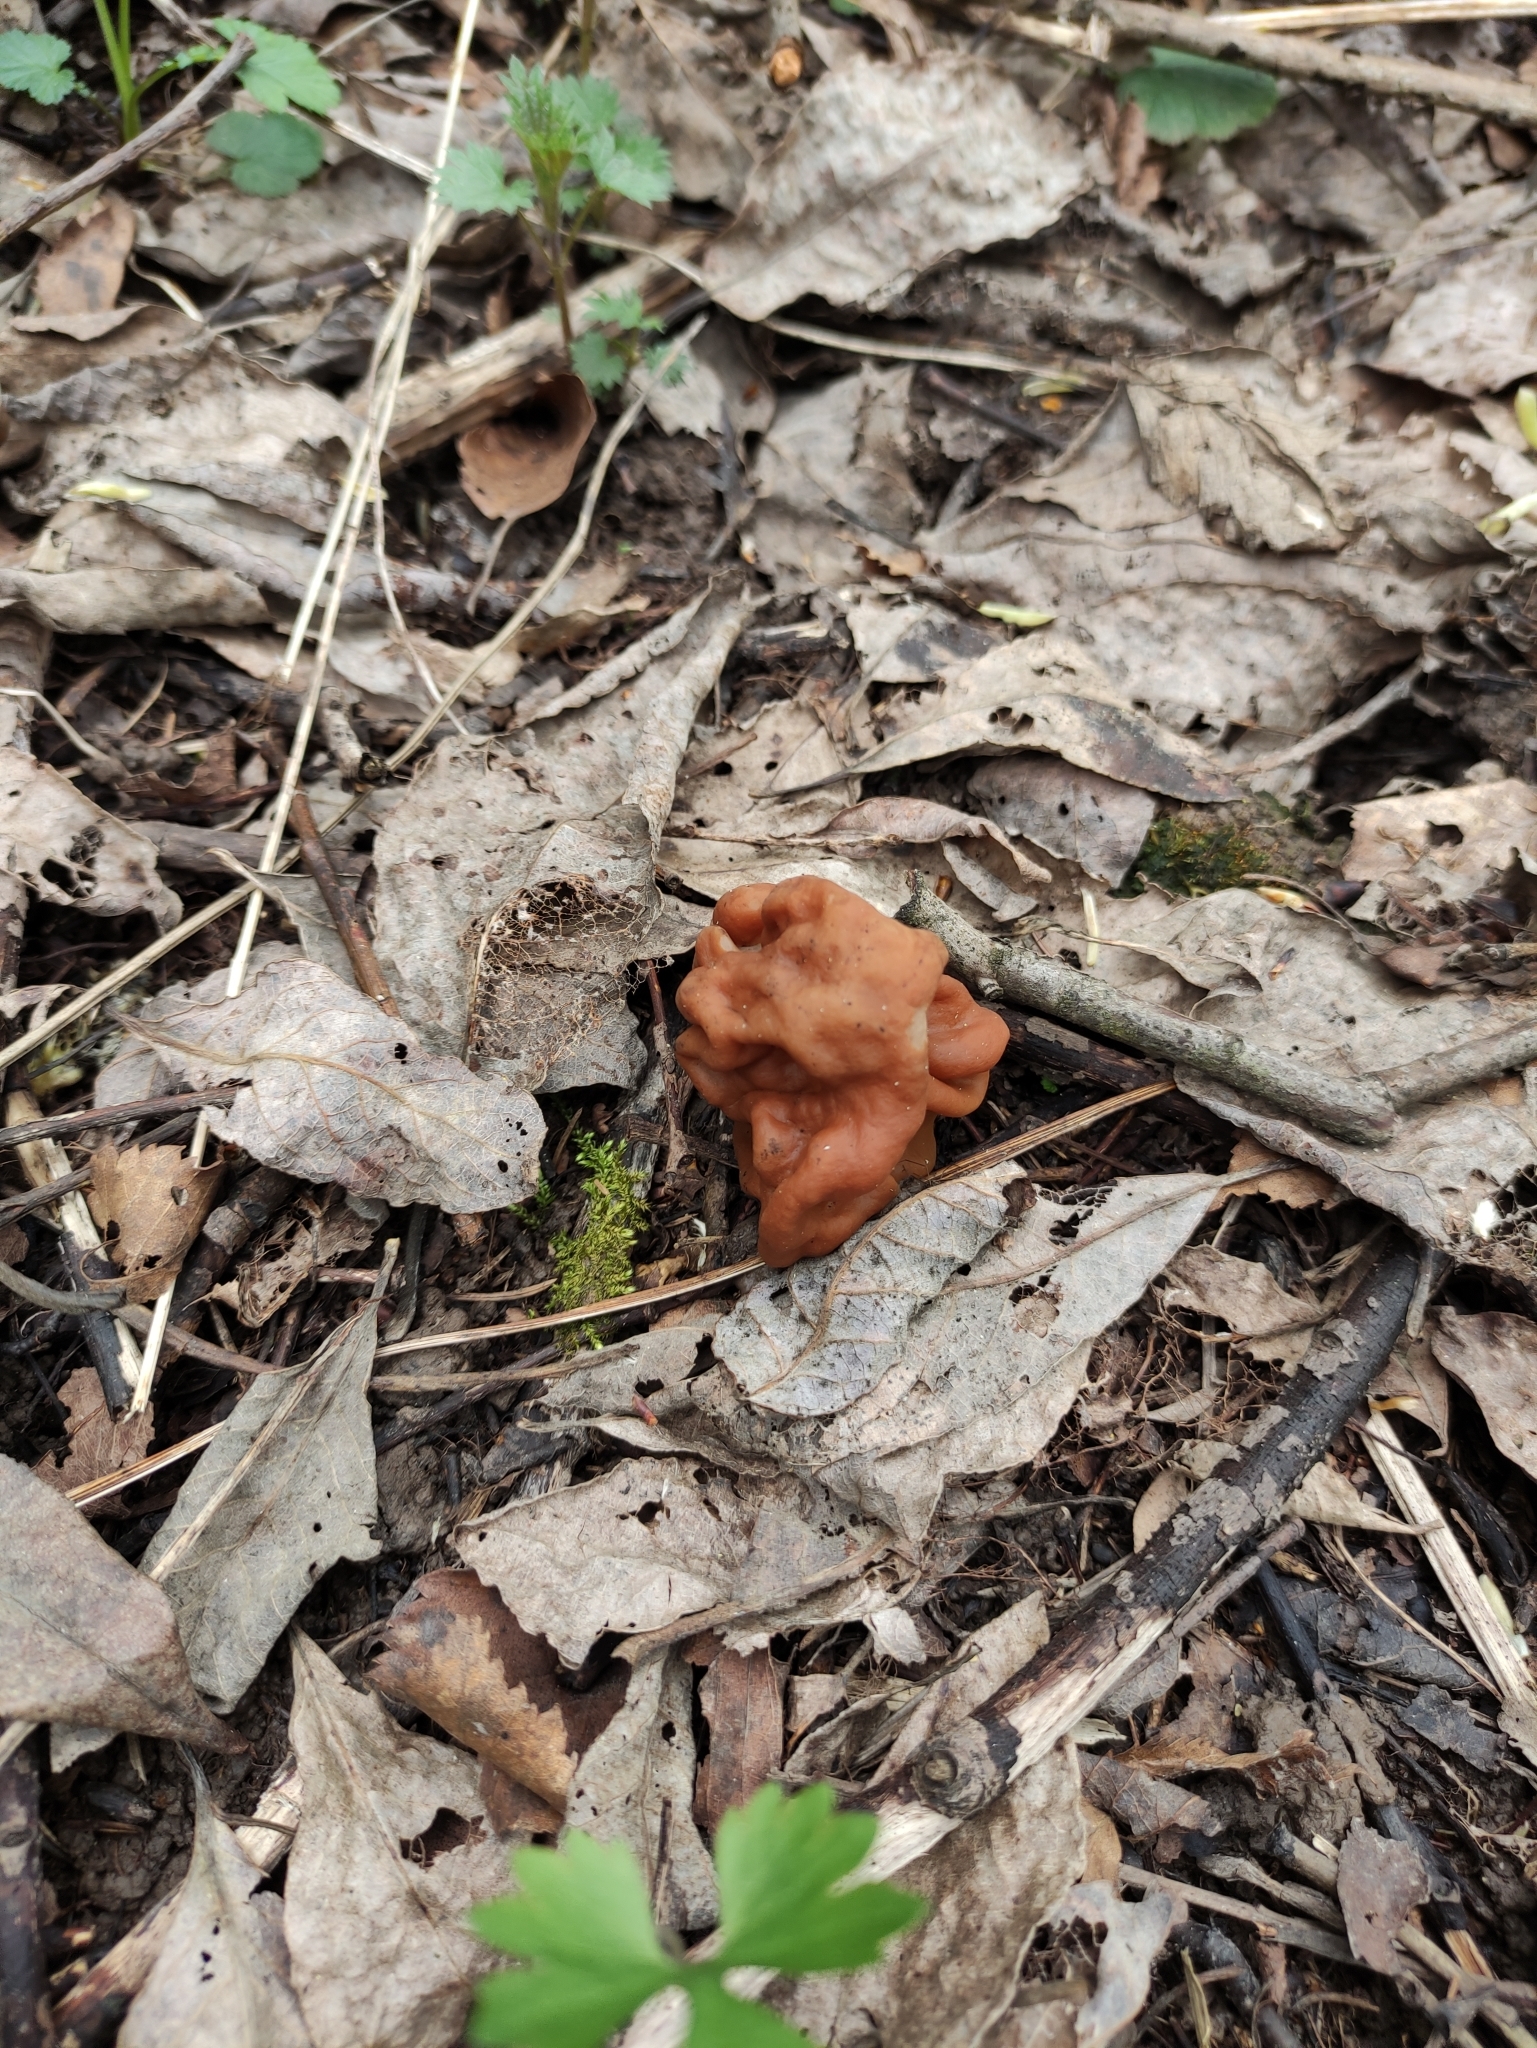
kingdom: Fungi
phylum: Ascomycota
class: Pezizomycetes
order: Pezizales
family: Discinaceae
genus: Gyromitra
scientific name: Gyromitra gigas
